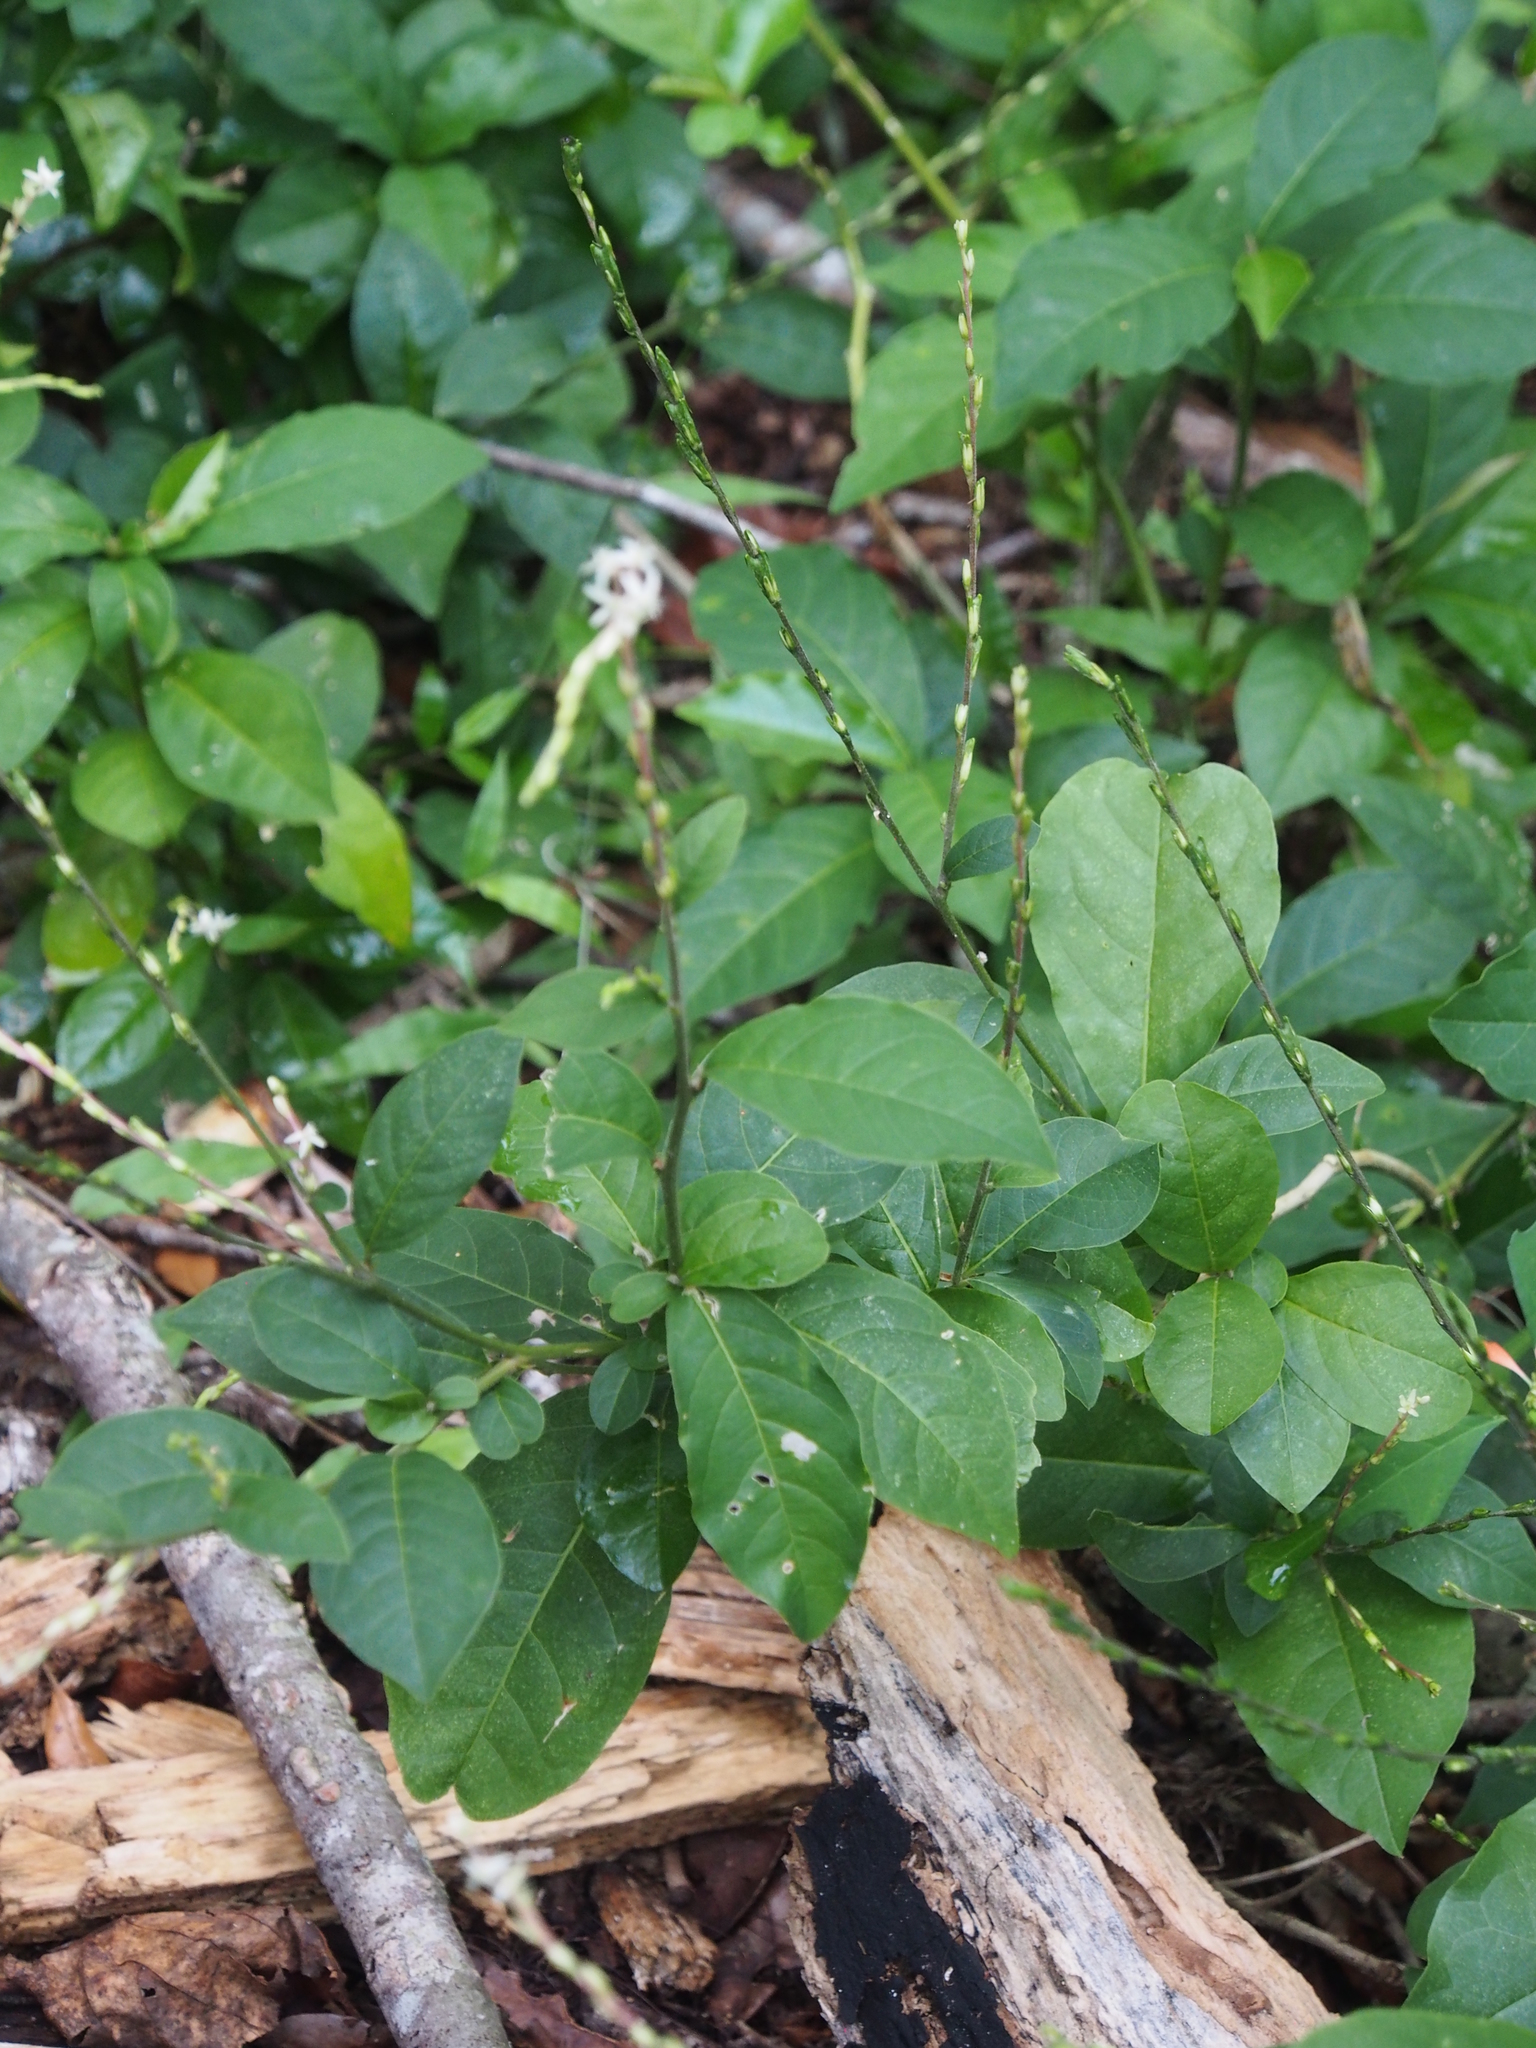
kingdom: Plantae
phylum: Tracheophyta
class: Magnoliopsida
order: Caryophyllales
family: Phytolaccaceae
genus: Petiveria
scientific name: Petiveria alliacea
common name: Garlicweed
